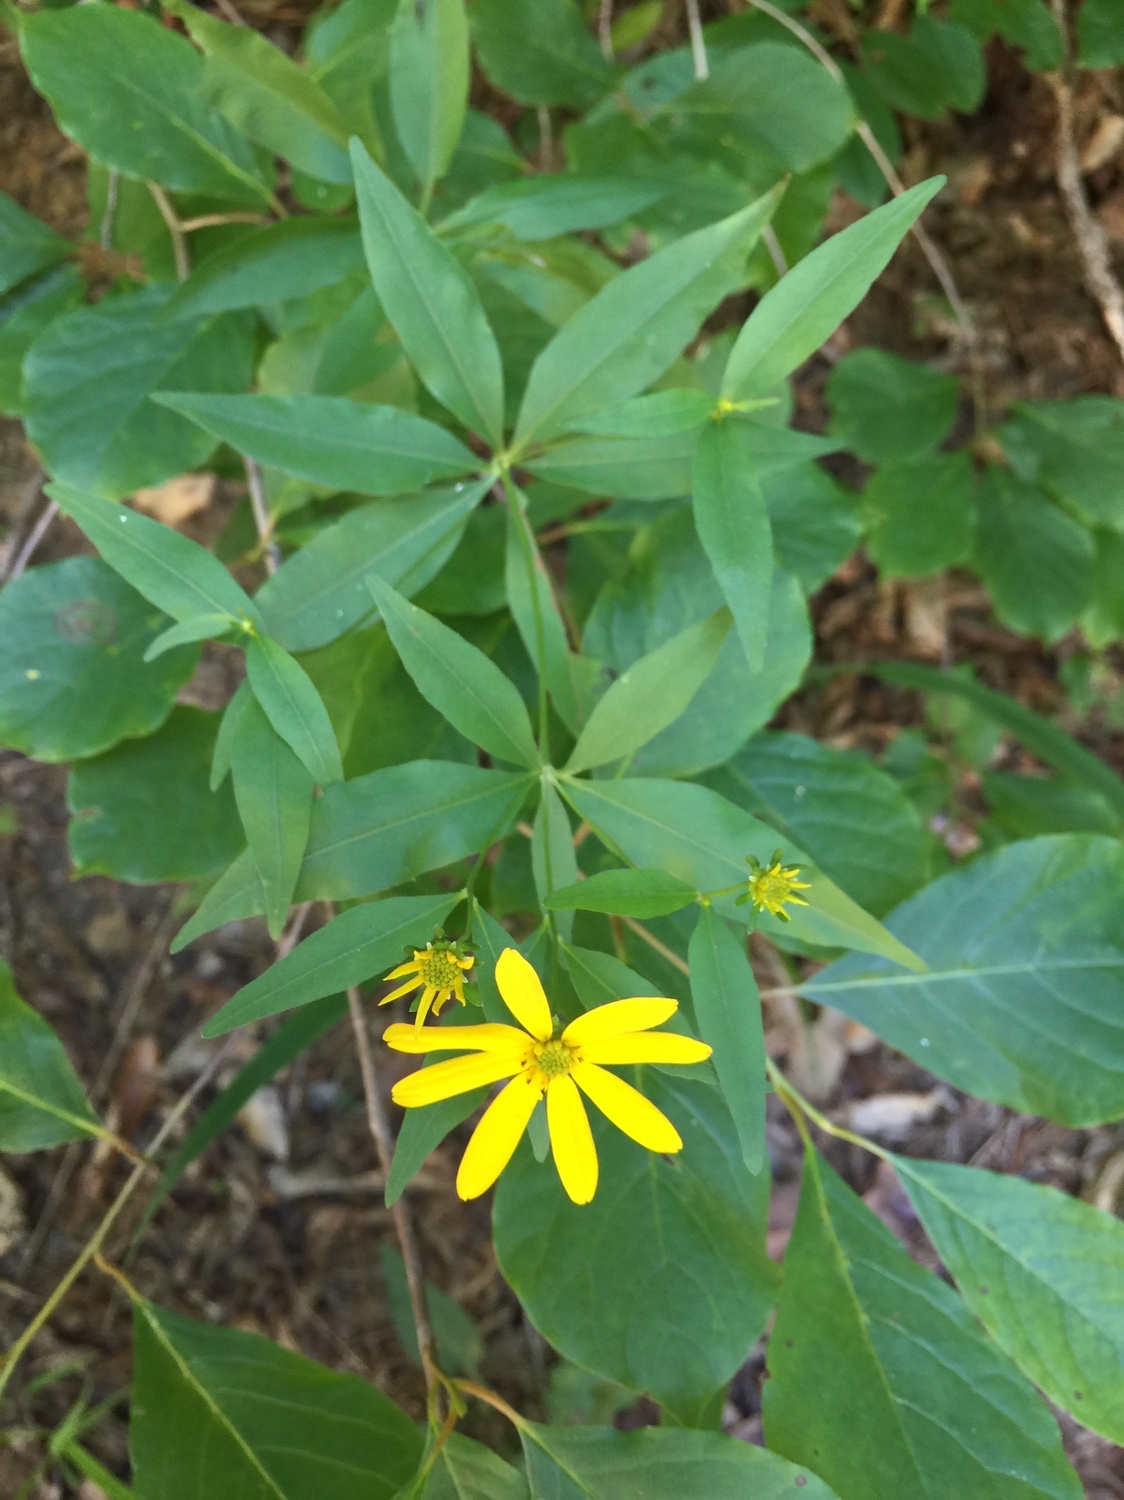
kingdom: Plantae
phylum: Tracheophyta
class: Magnoliopsida
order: Asterales
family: Asteraceae
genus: Coreopsis
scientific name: Coreopsis major
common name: Forest tickseed
